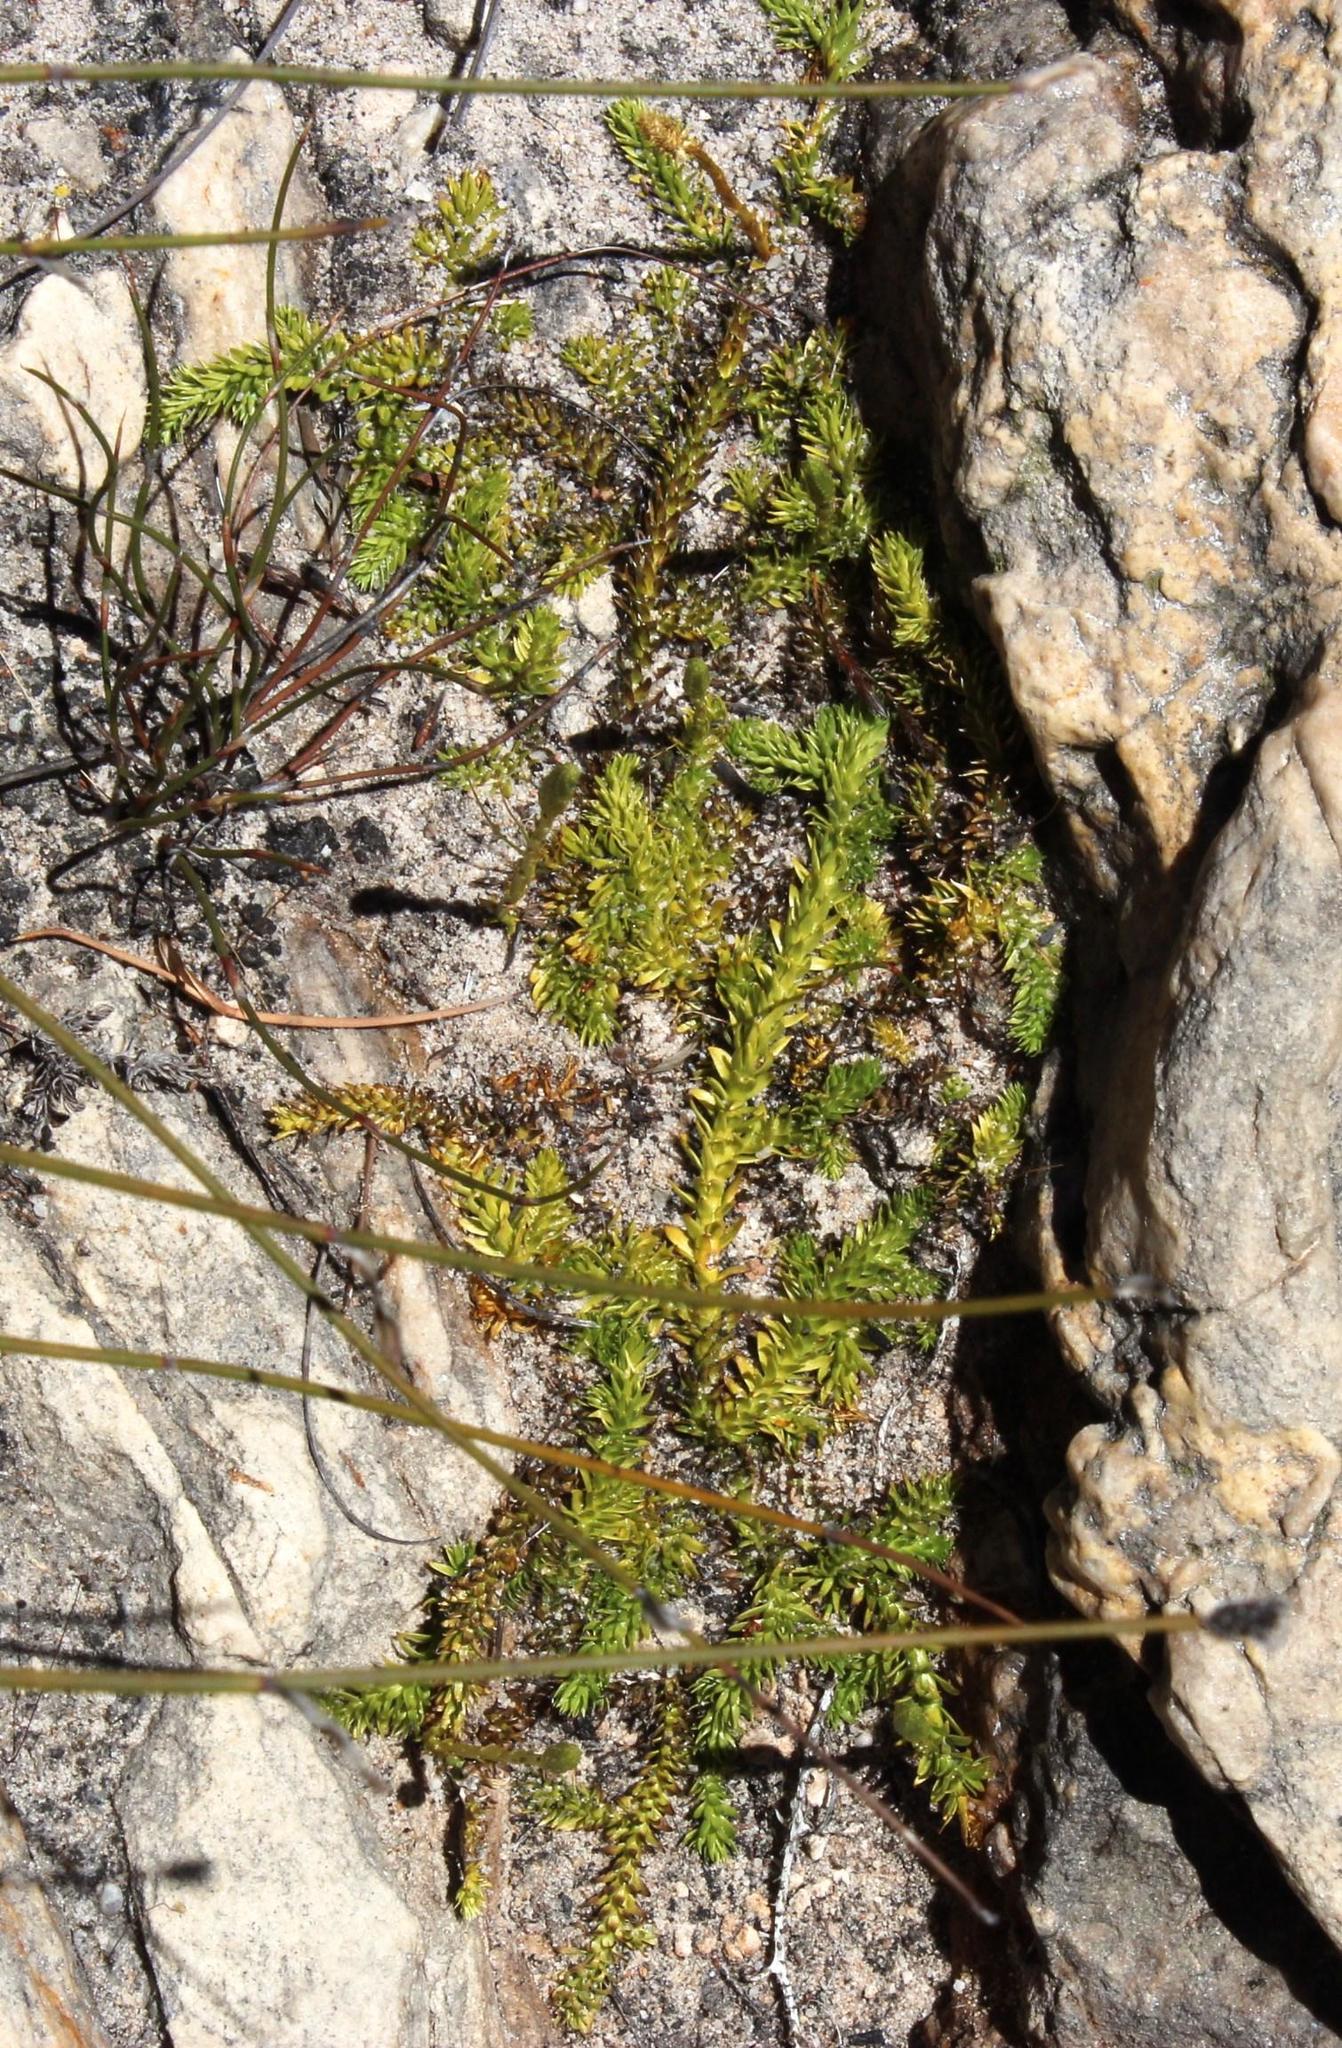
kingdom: Plantae
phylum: Tracheophyta
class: Lycopodiopsida
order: Lycopodiales
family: Lycopodiaceae
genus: Pseudolycopodiella
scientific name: Pseudolycopodiella caroliniana
